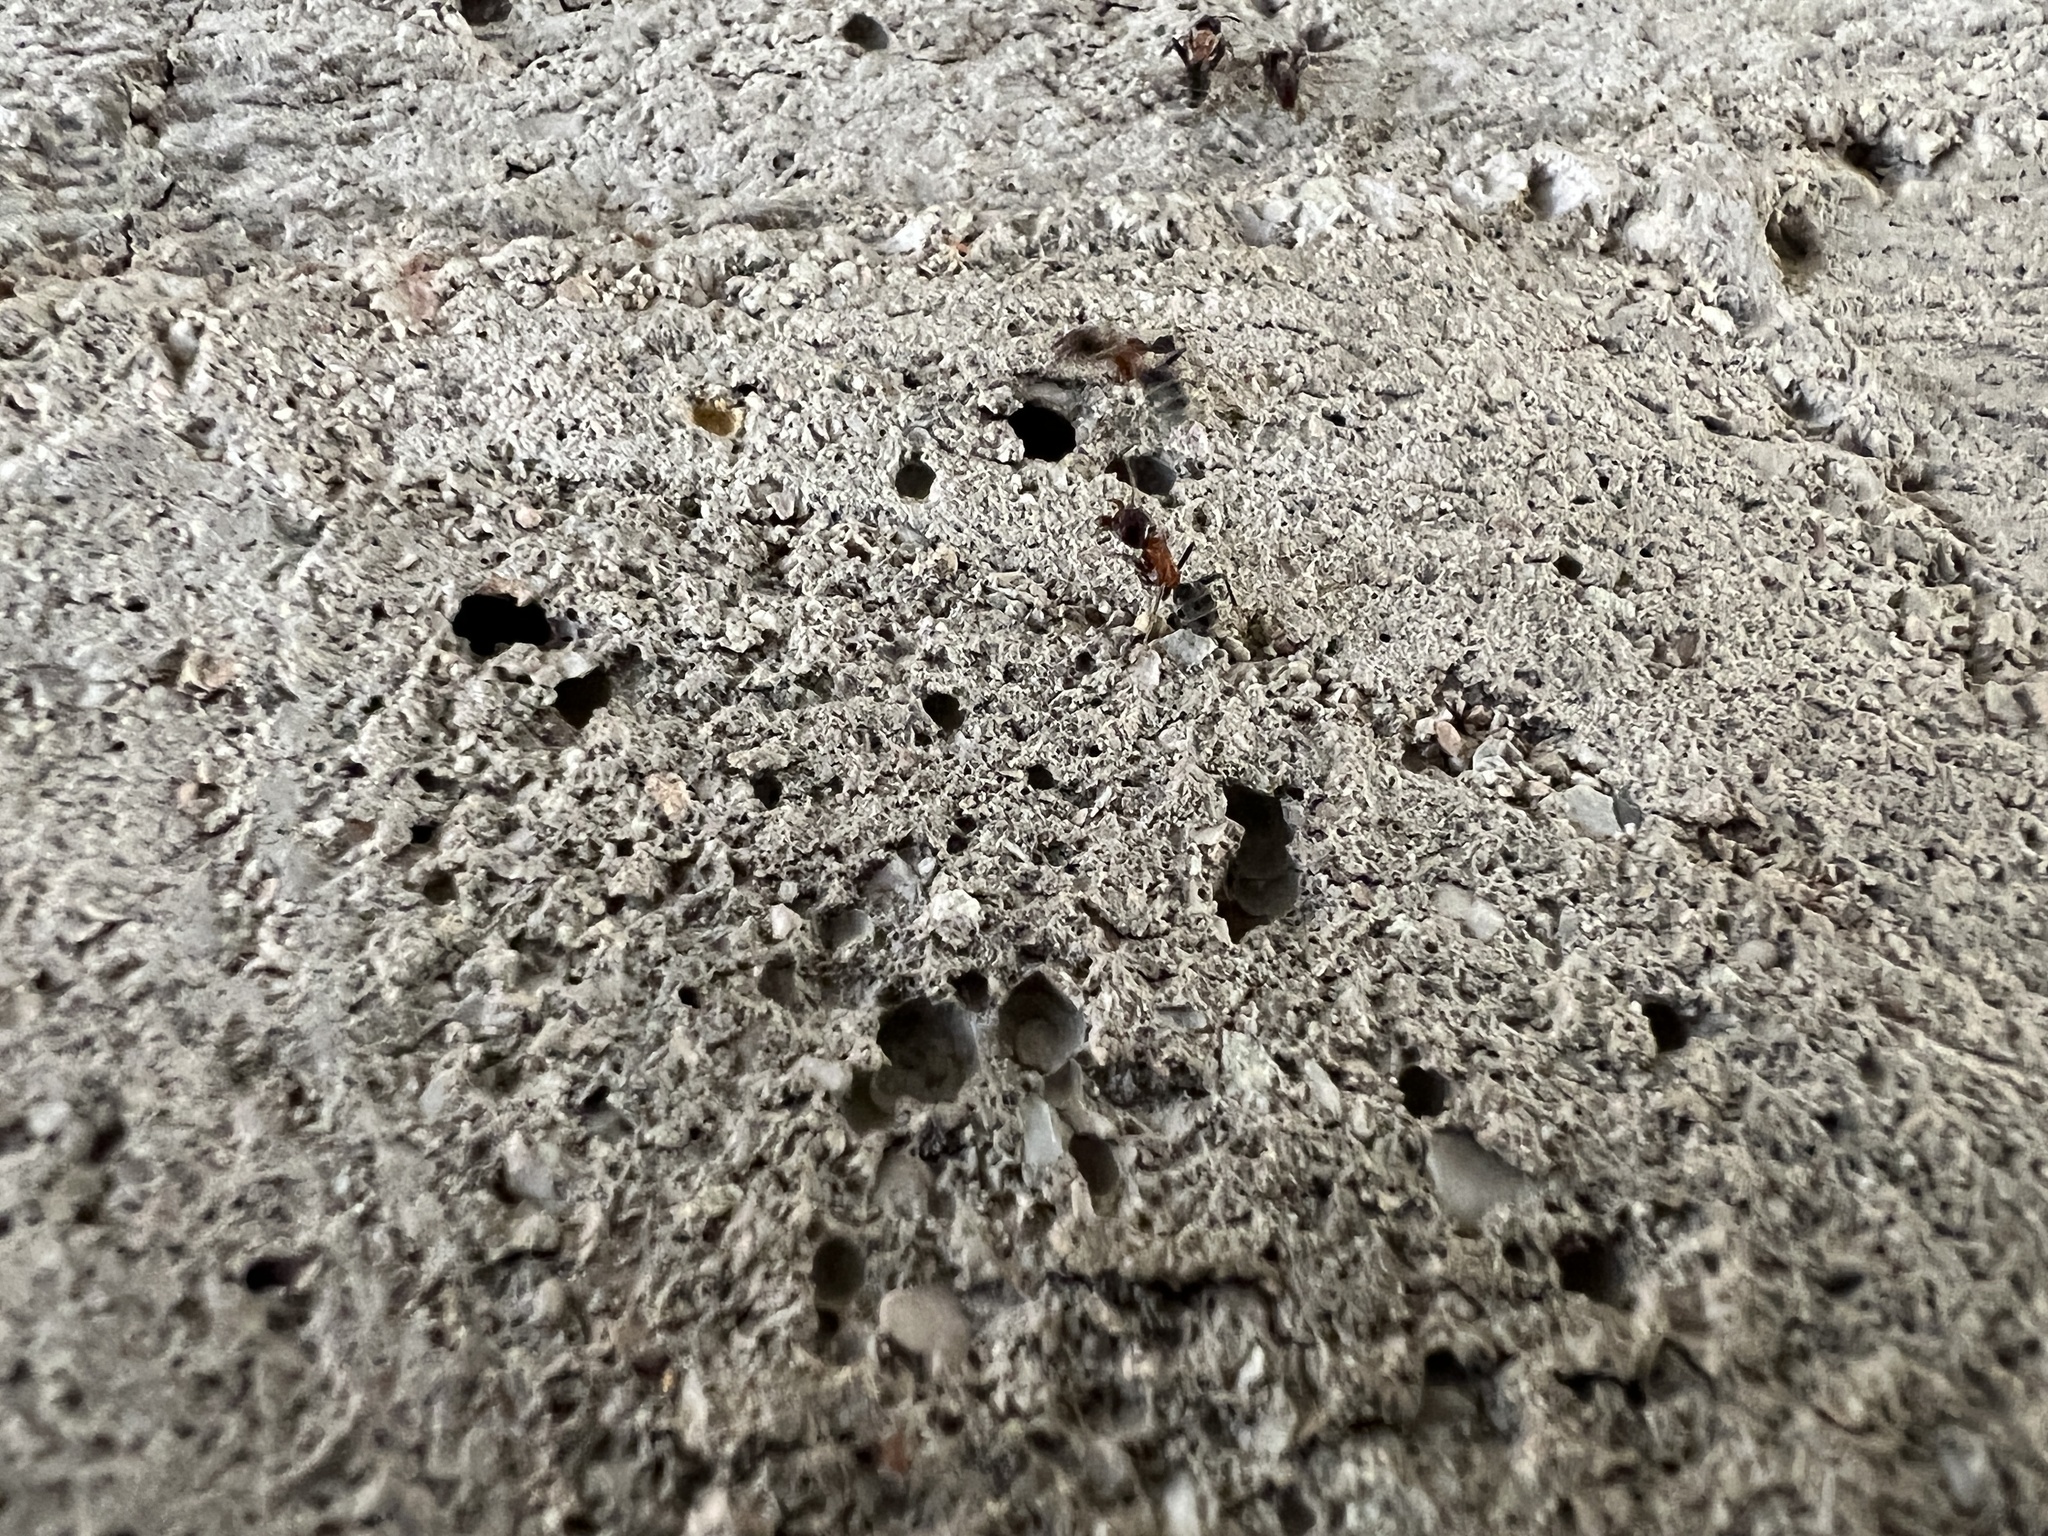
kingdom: Animalia
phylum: Arthropoda
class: Insecta
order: Hymenoptera
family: Formicidae
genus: Liometopum
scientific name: Liometopum microcephalum
